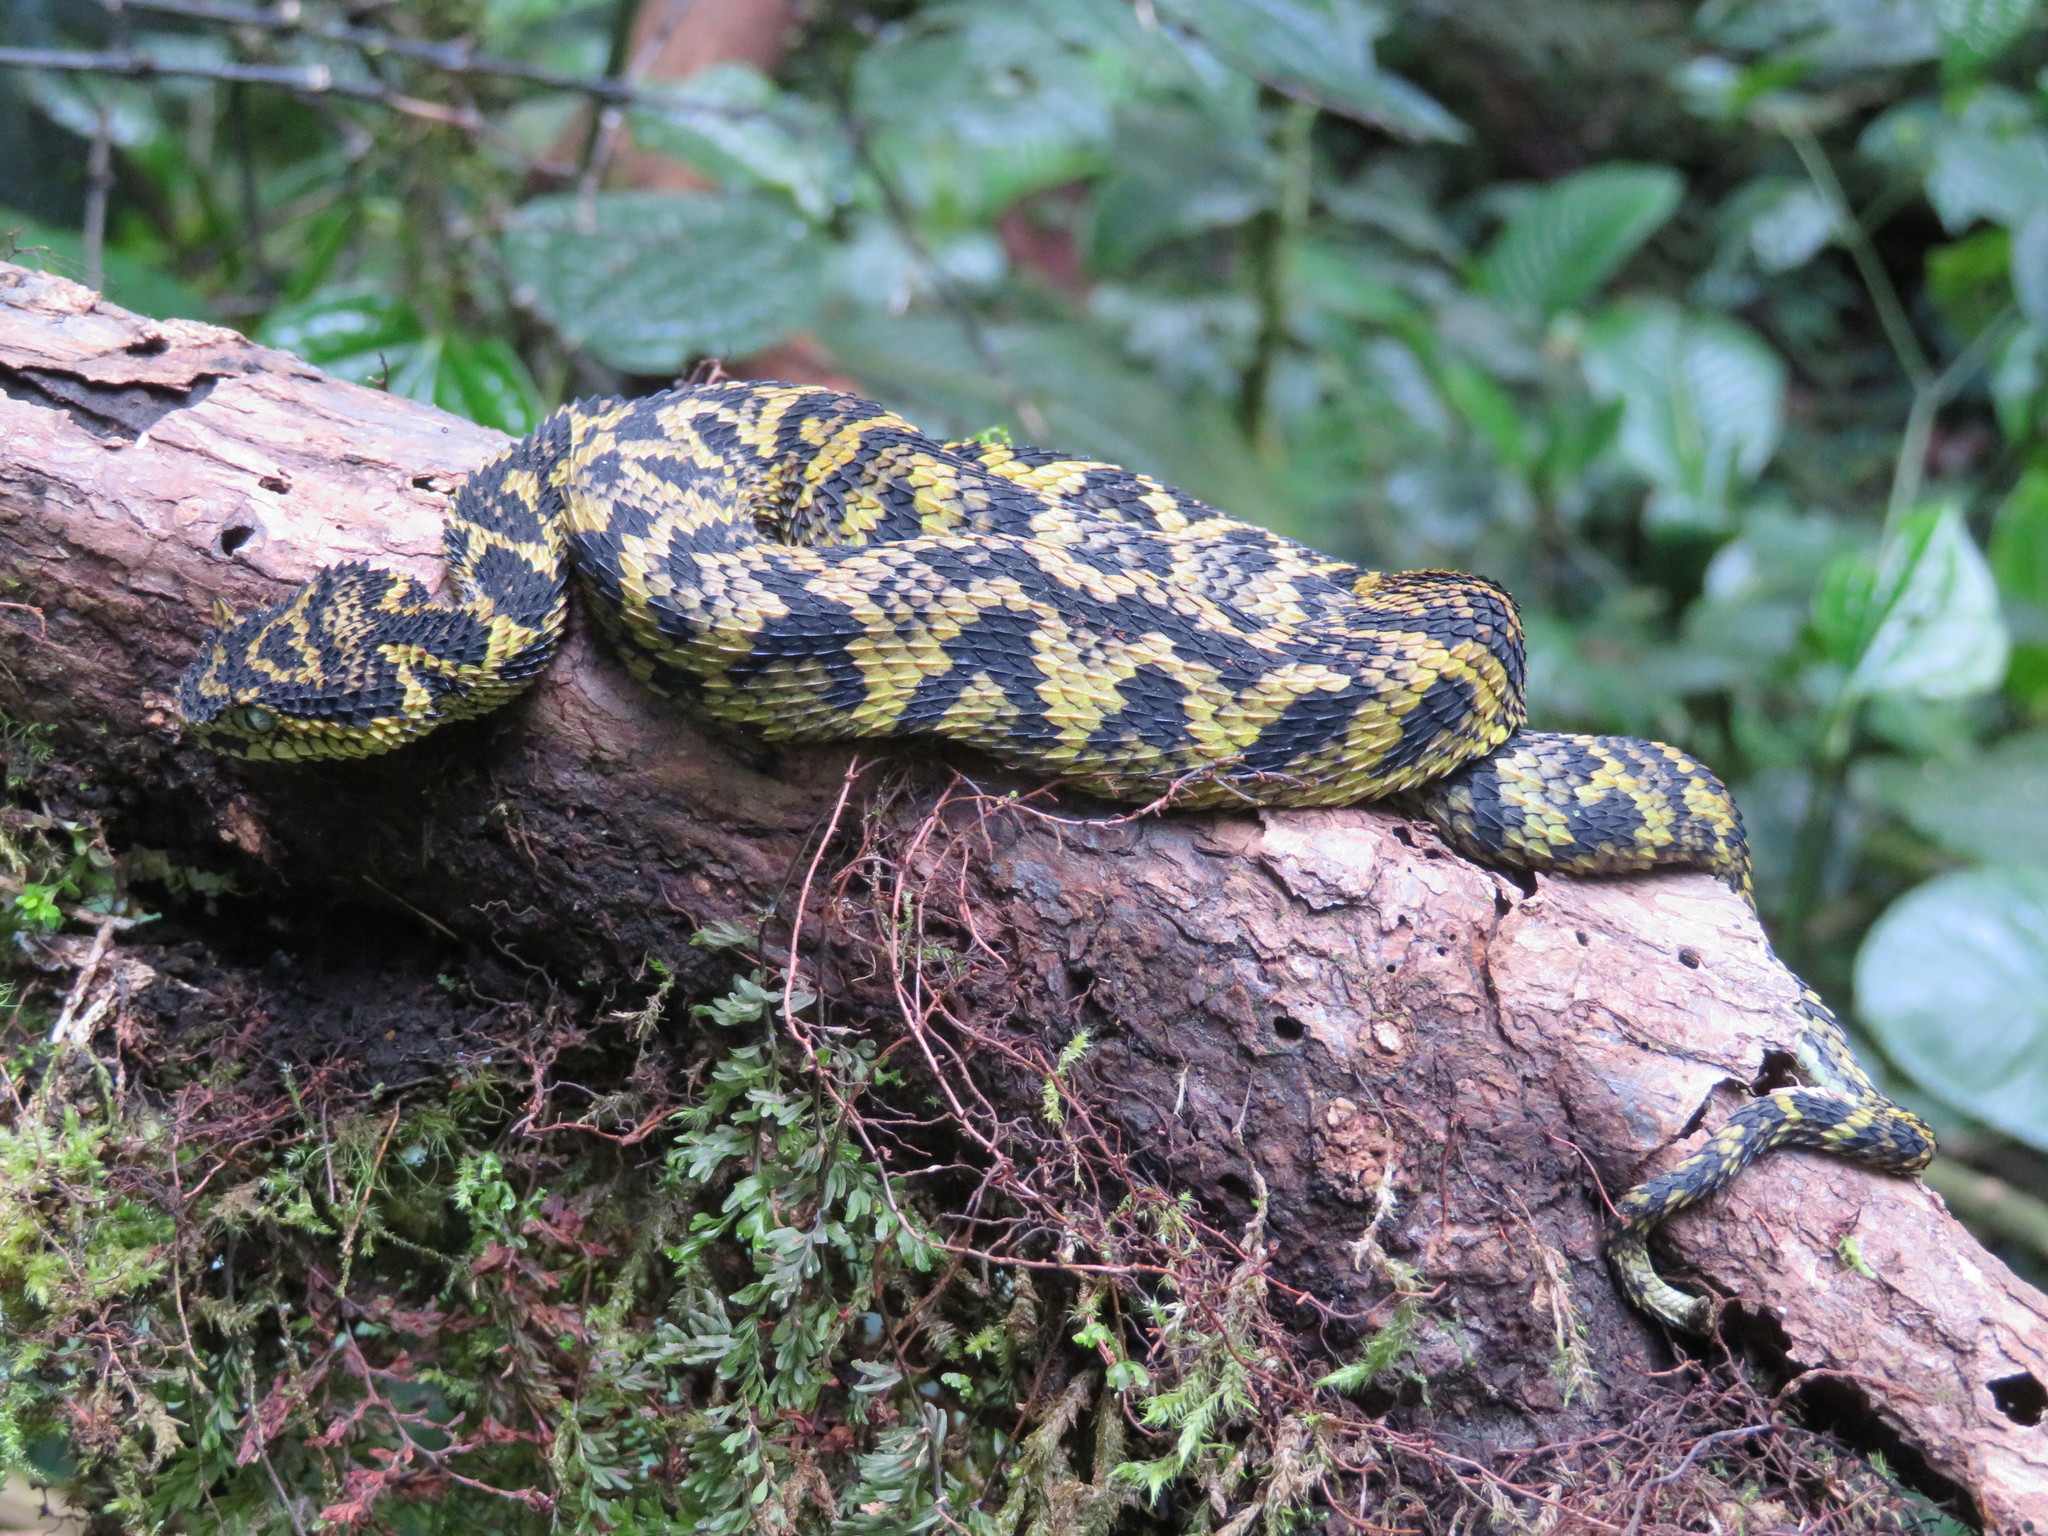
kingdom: Animalia
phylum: Chordata
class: Squamata
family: Viperidae
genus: Atheris
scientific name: Atheris ceratophora
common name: Usambara eyelash viper
